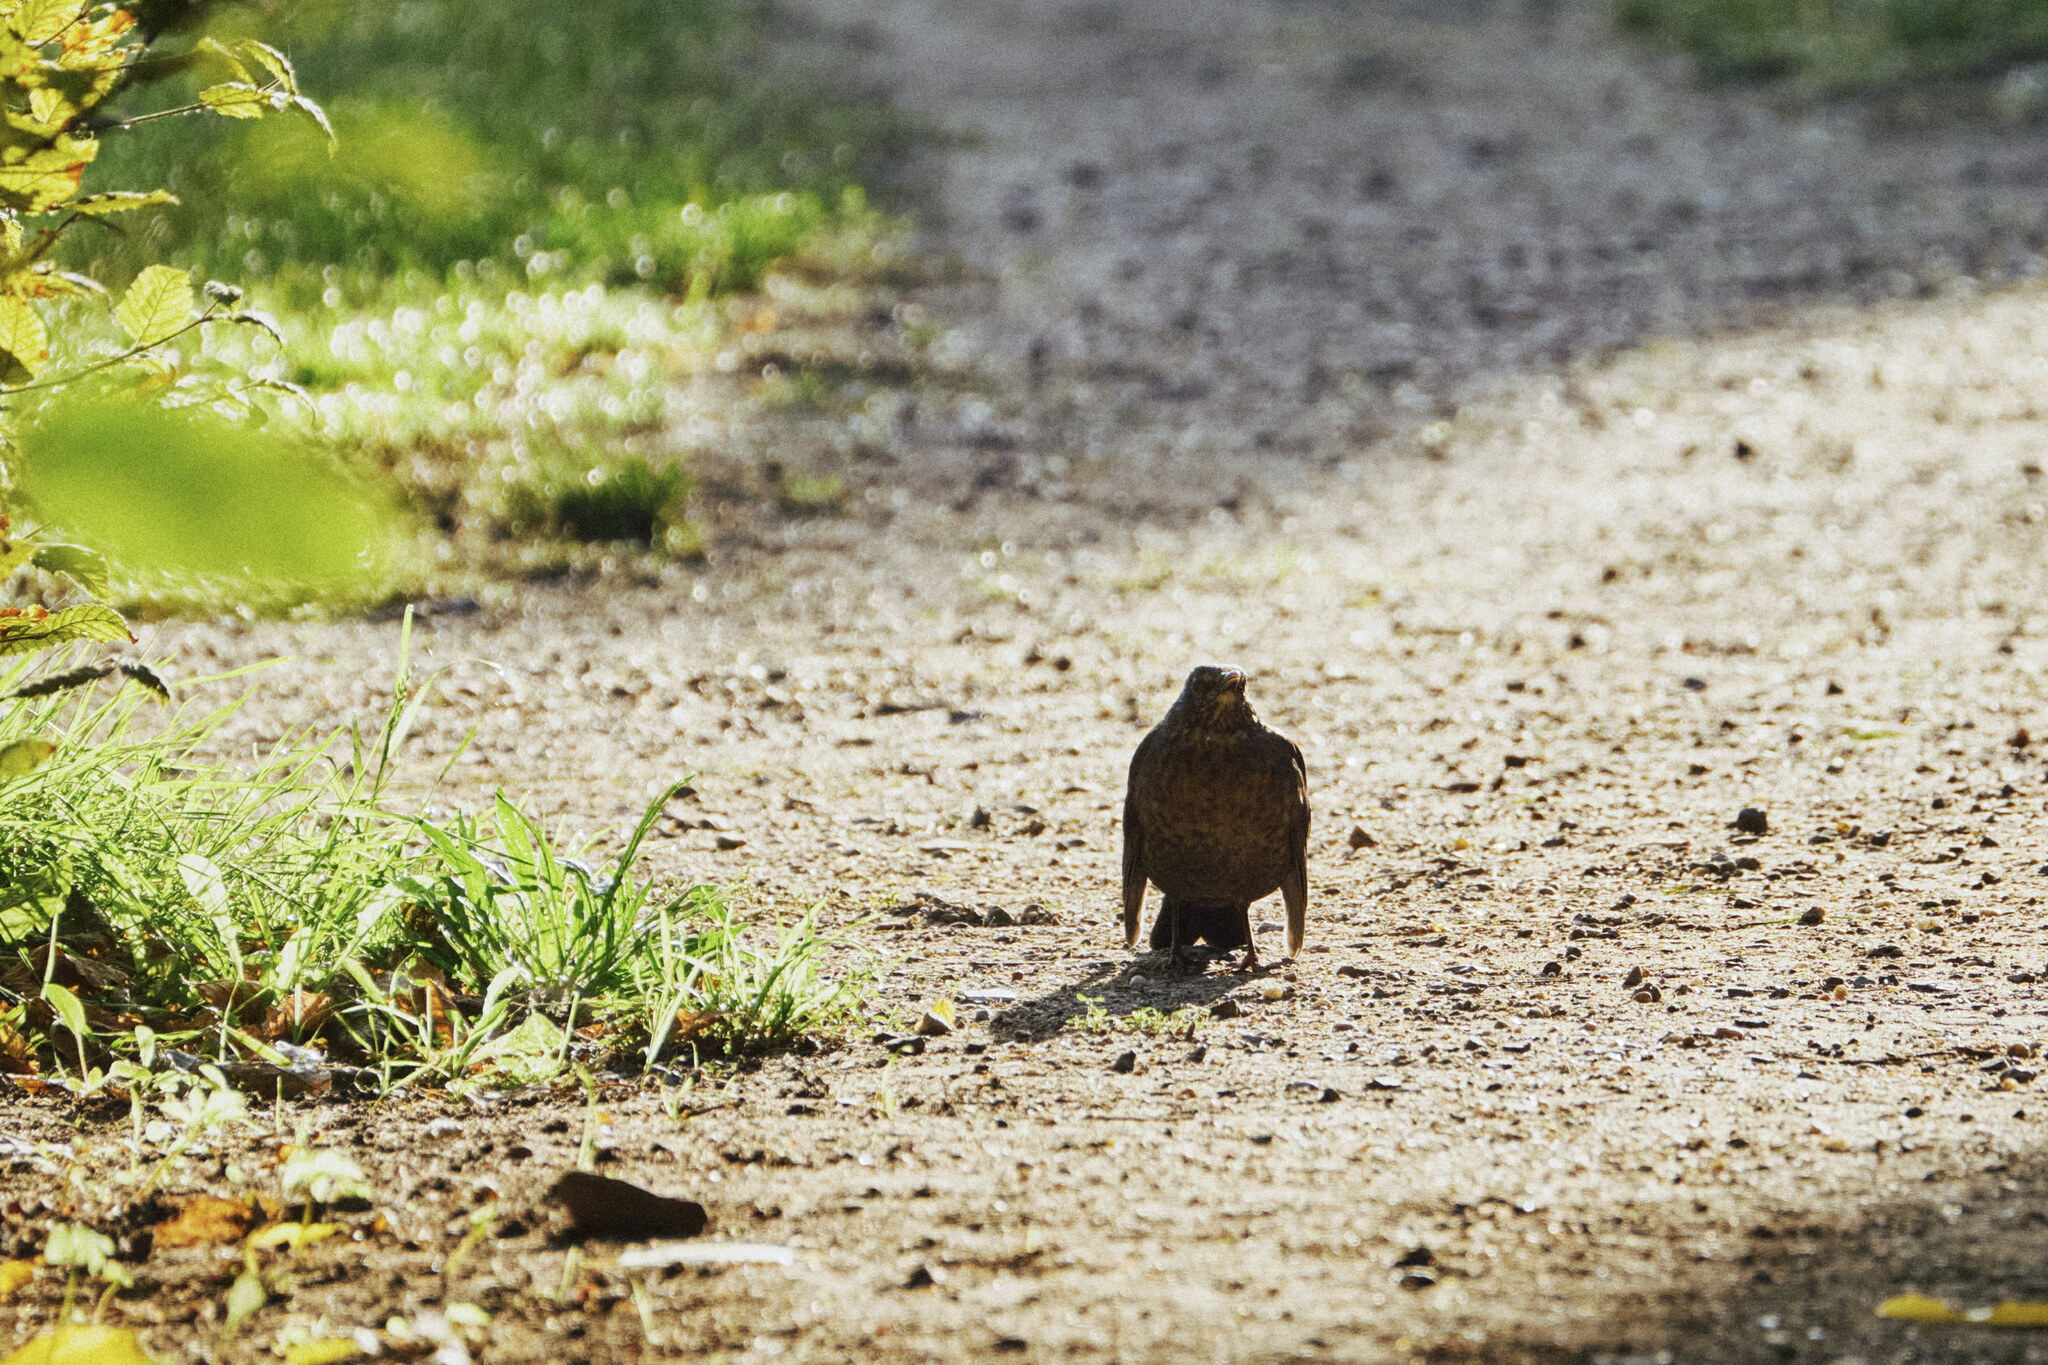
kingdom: Animalia
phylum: Chordata
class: Aves
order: Passeriformes
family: Turdidae
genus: Turdus
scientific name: Turdus merula
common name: Common blackbird
